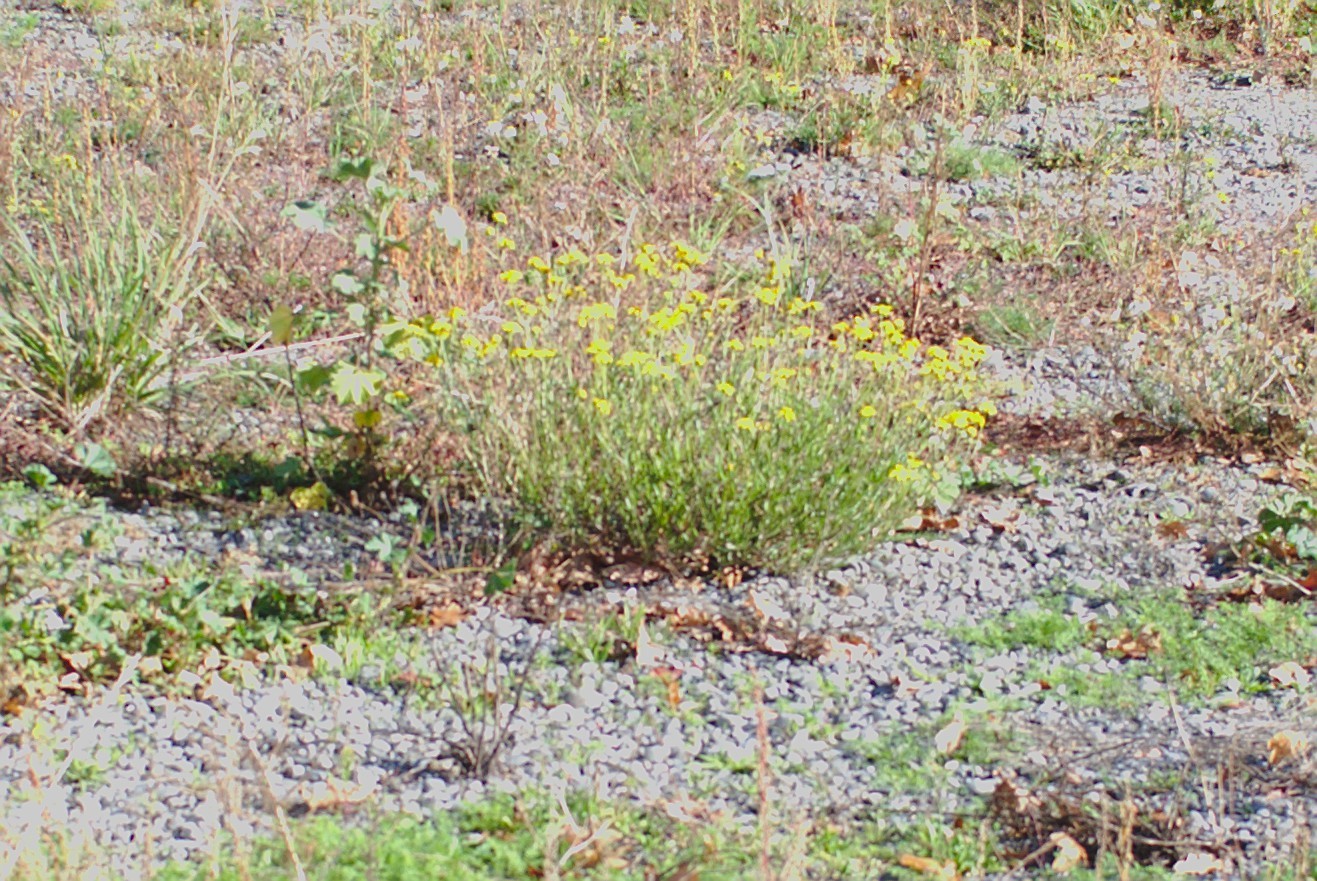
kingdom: Plantae
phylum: Tracheophyta
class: Magnoliopsida
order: Asterales
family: Asteraceae
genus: Senecio
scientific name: Senecio skirrhodon
